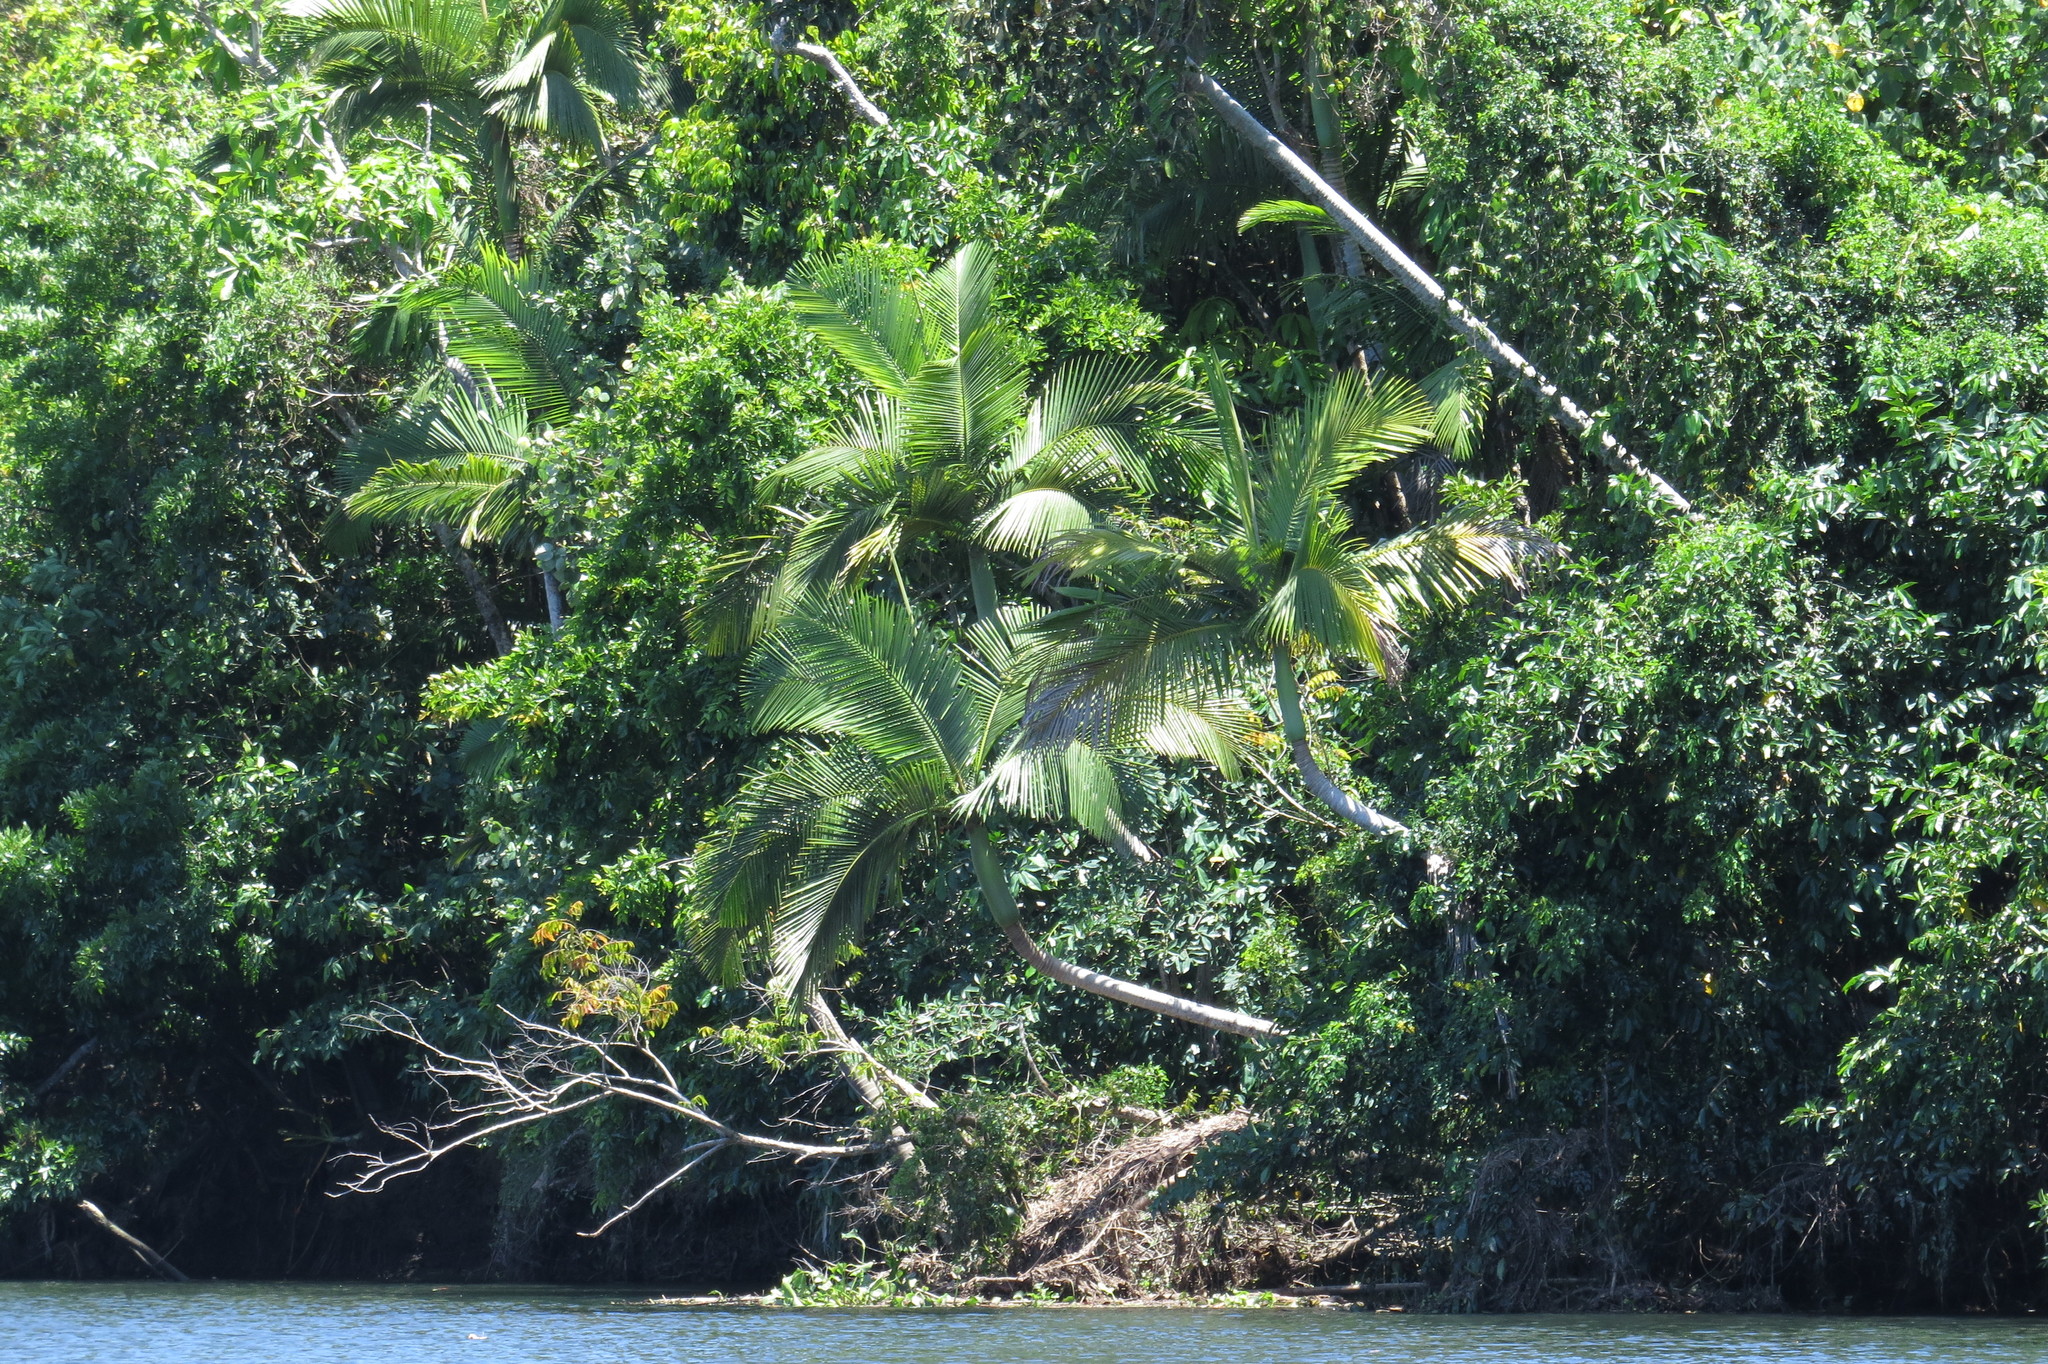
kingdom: Plantae
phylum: Tracheophyta
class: Liliopsida
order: Arecales
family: Arecaceae
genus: Archontophoenix
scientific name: Archontophoenix alexandrae
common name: Alexandra palm
